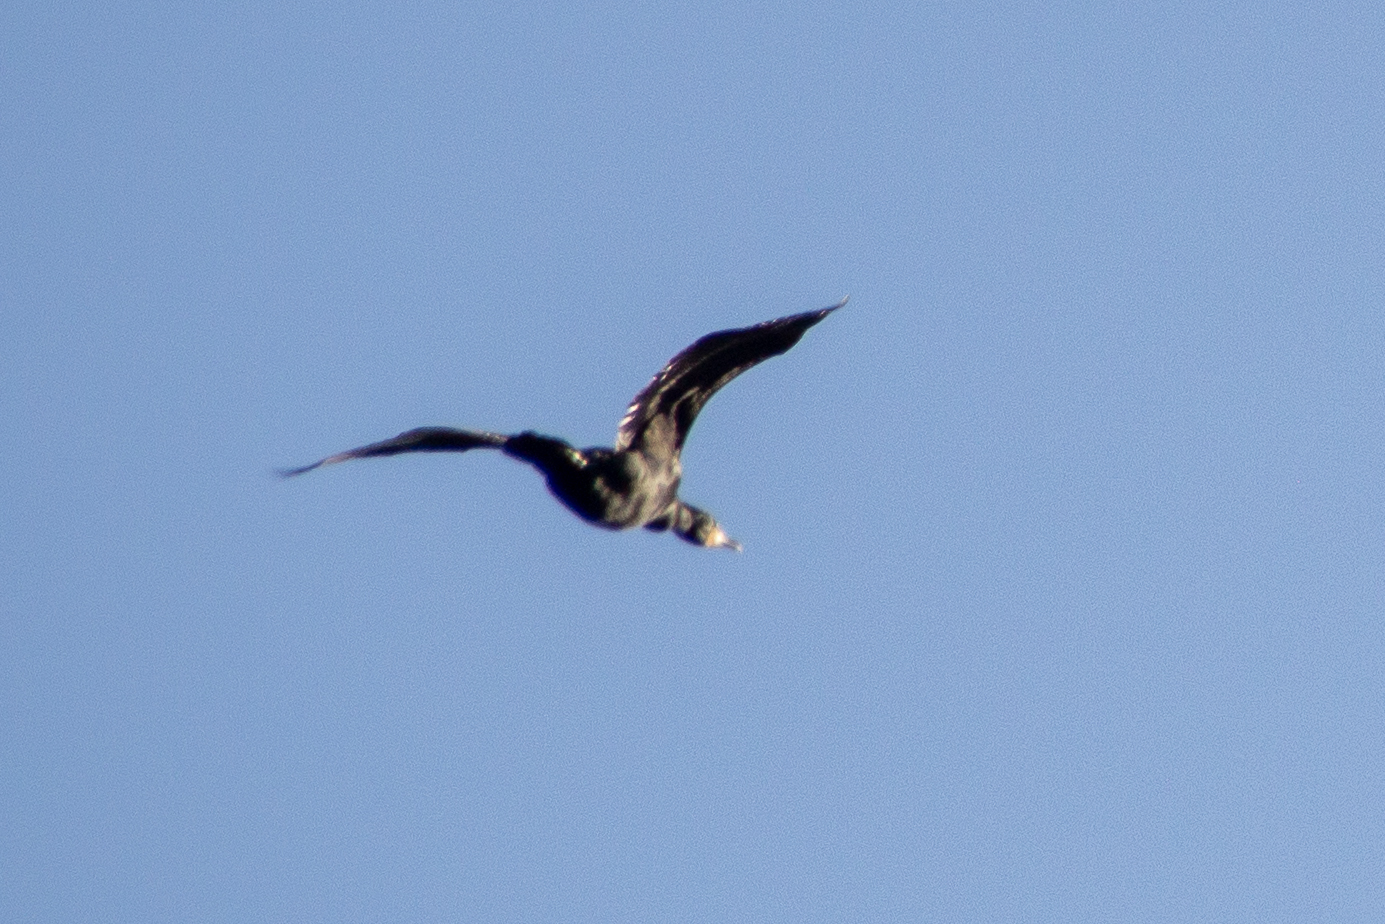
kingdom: Animalia
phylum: Chordata
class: Aves
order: Suliformes
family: Phalacrocoracidae
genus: Phalacrocorax
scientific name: Phalacrocorax auritus
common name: Double-crested cormorant
